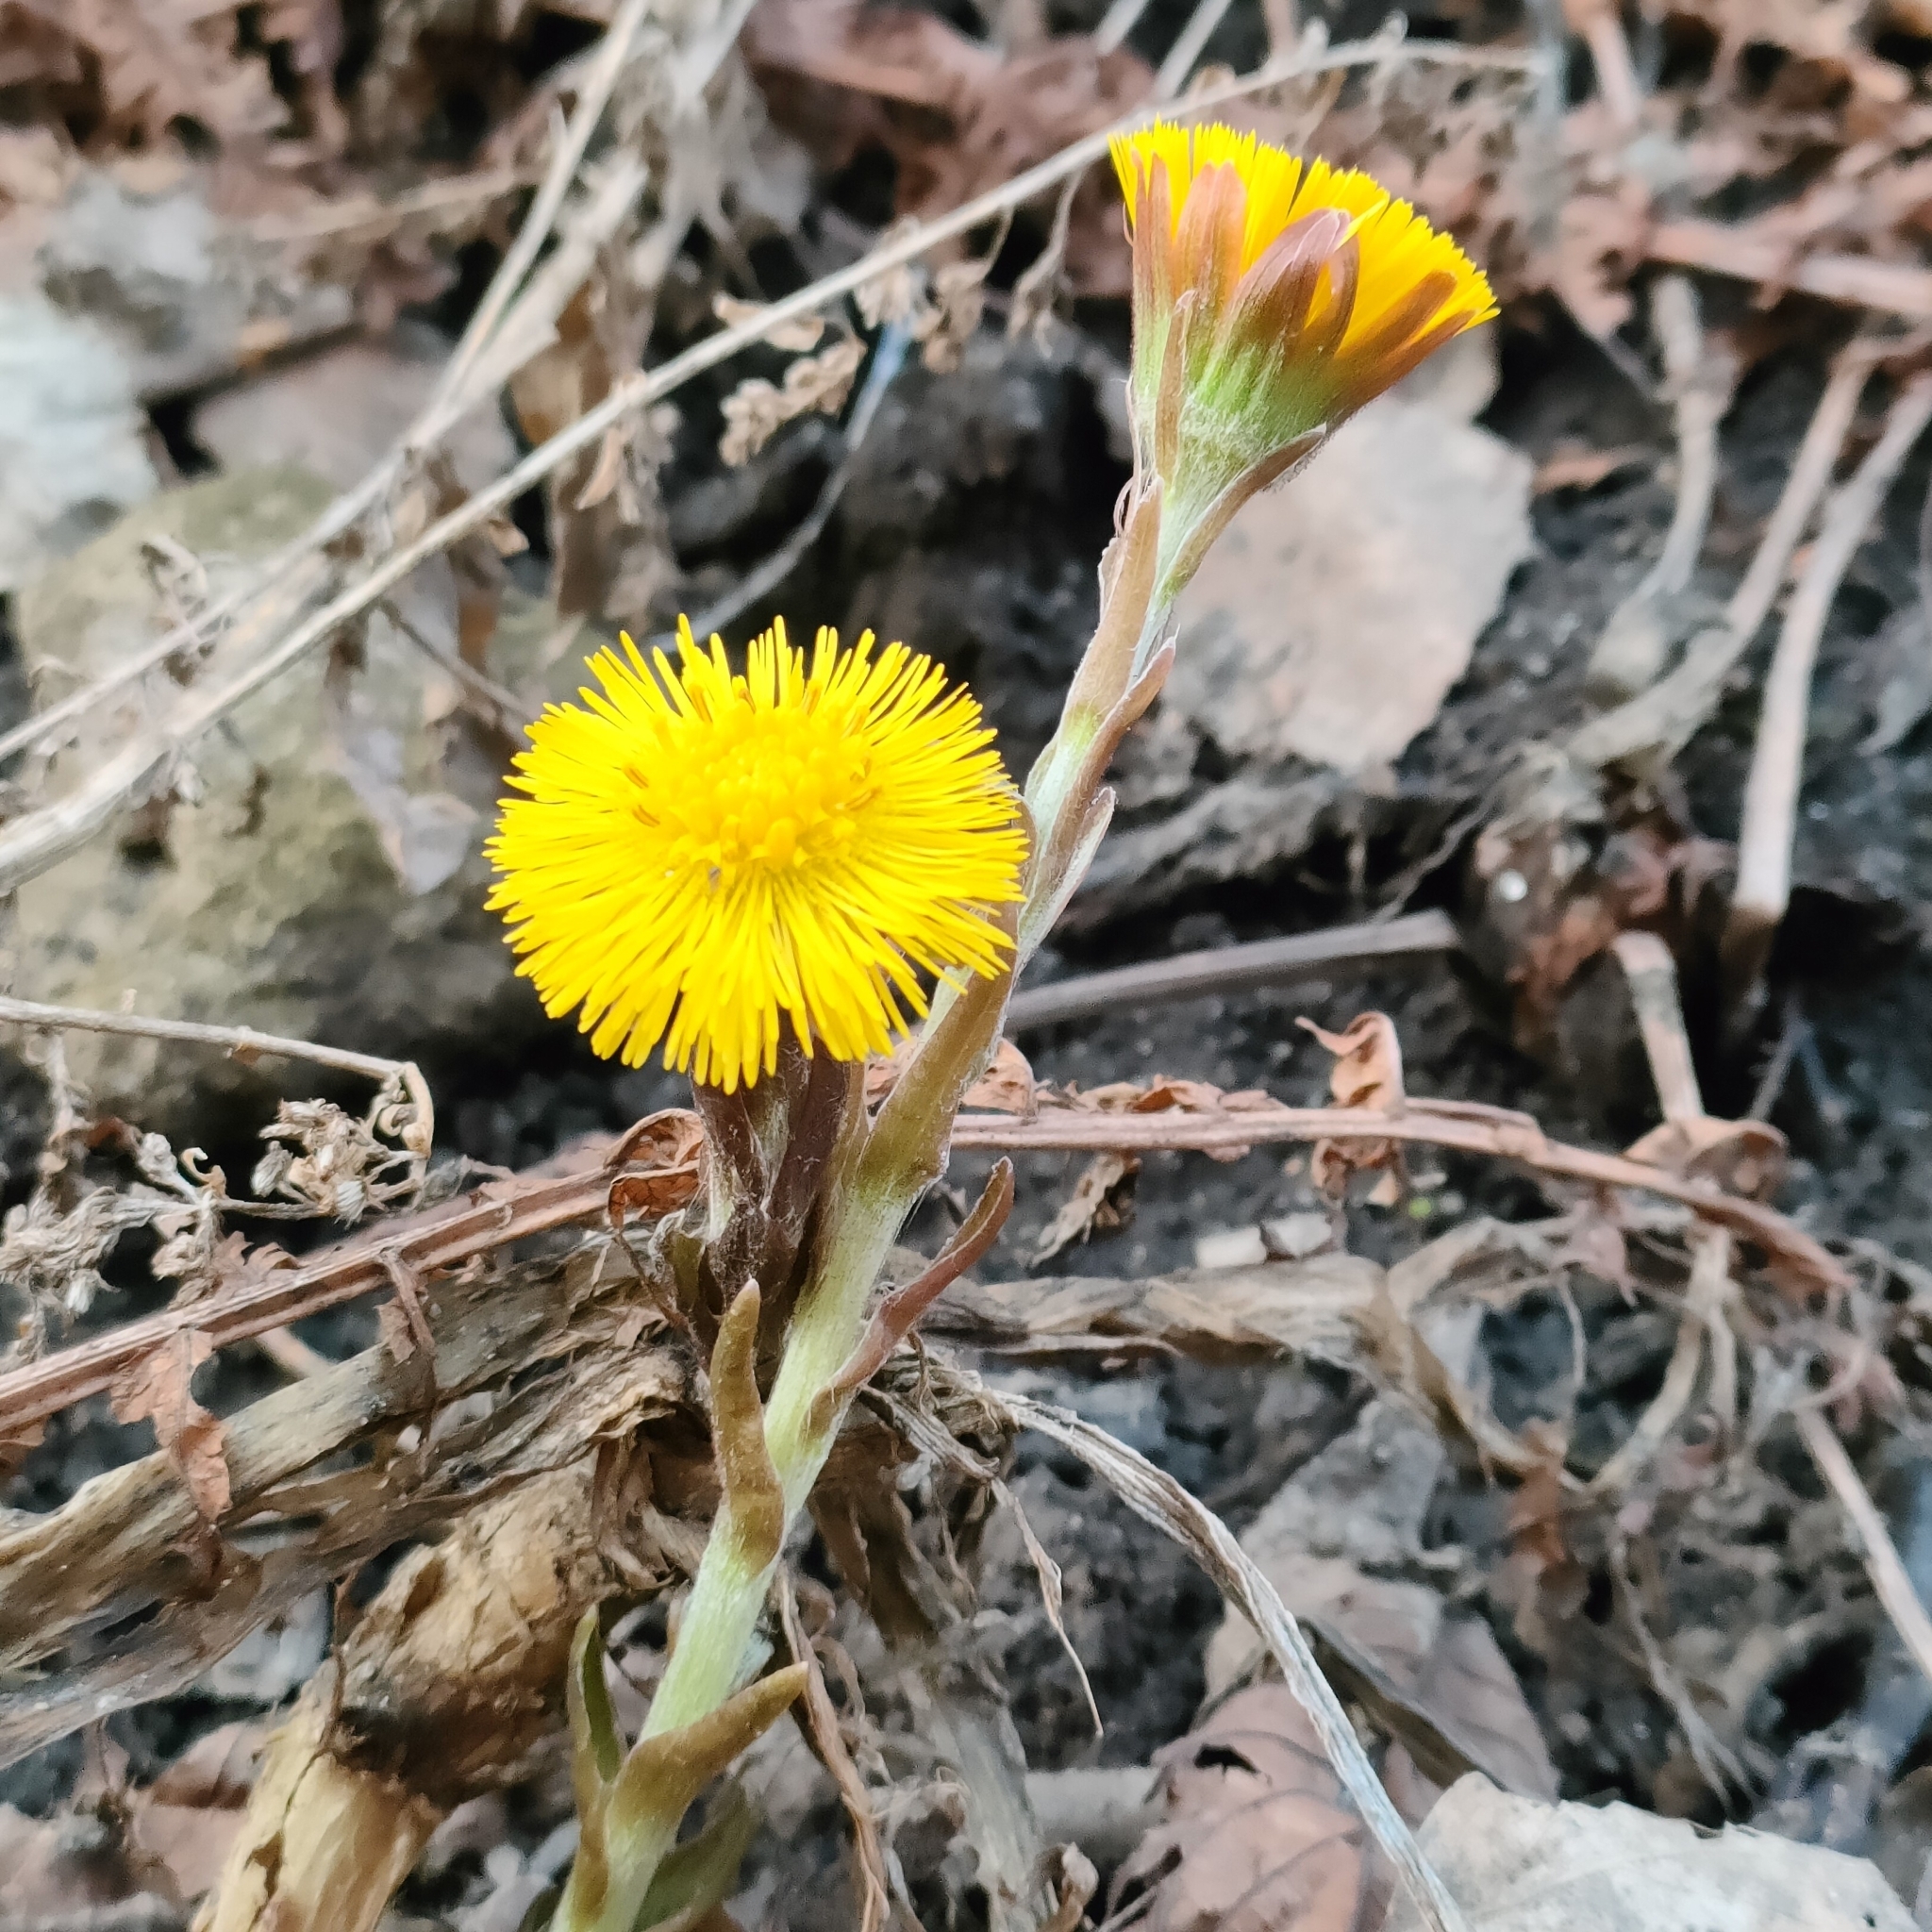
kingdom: Plantae
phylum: Tracheophyta
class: Magnoliopsida
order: Asterales
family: Asteraceae
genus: Tussilago
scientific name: Tussilago farfara
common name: Coltsfoot
